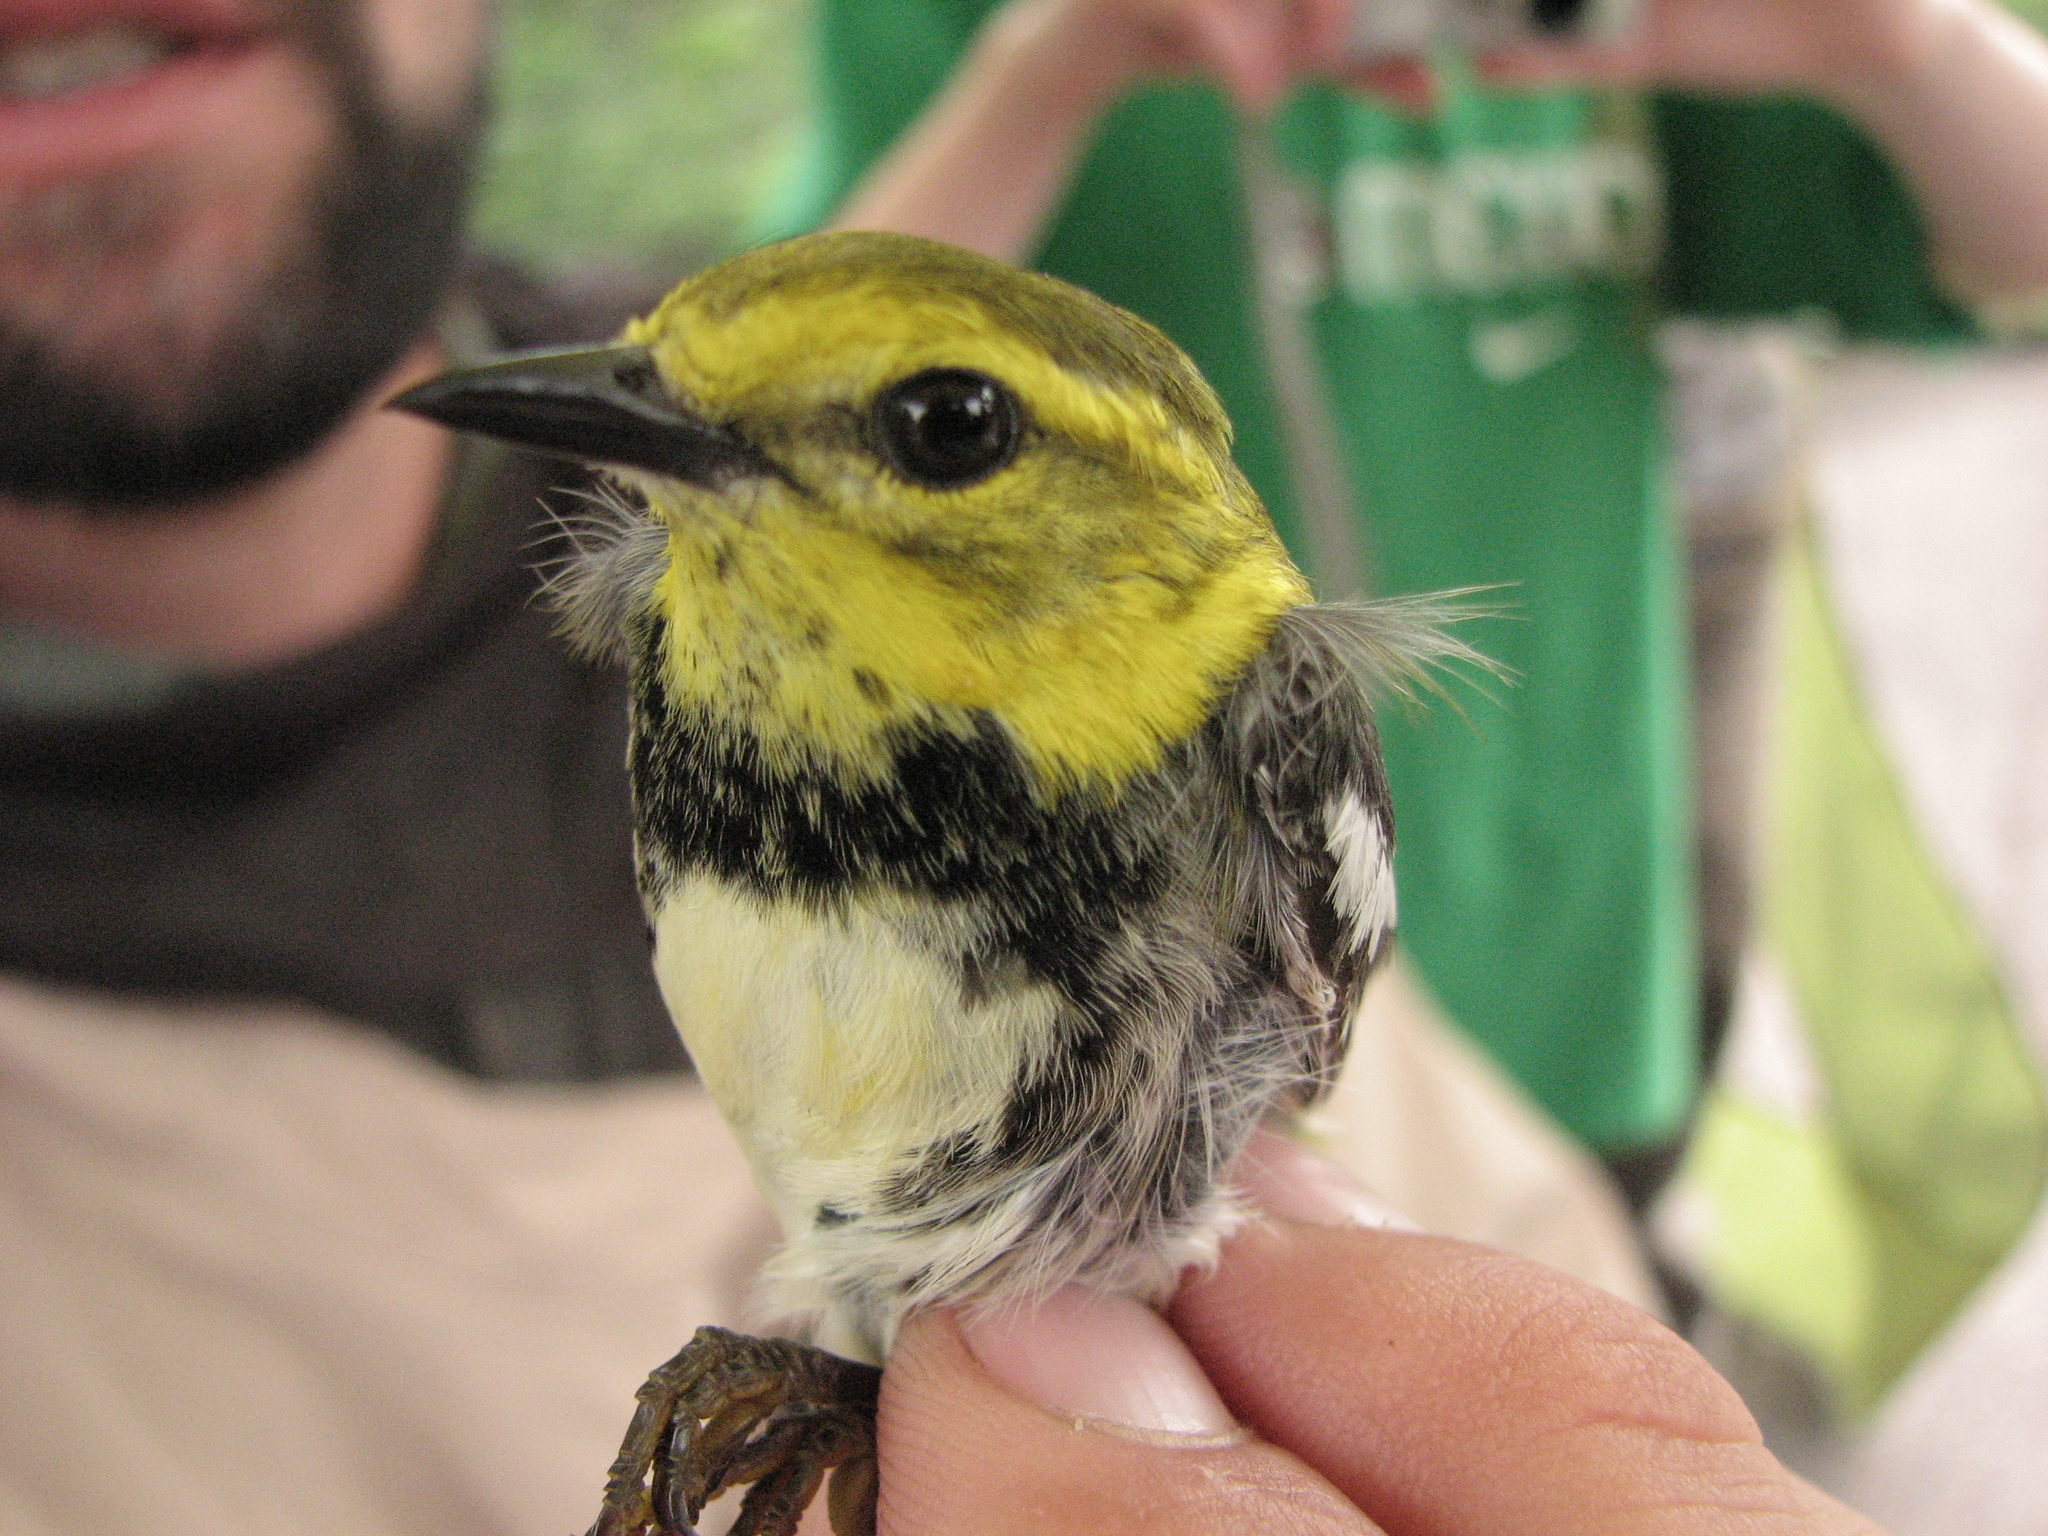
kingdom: Animalia
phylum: Chordata
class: Aves
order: Passeriformes
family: Parulidae
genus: Setophaga
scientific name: Setophaga virens
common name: Black-throated green warbler
